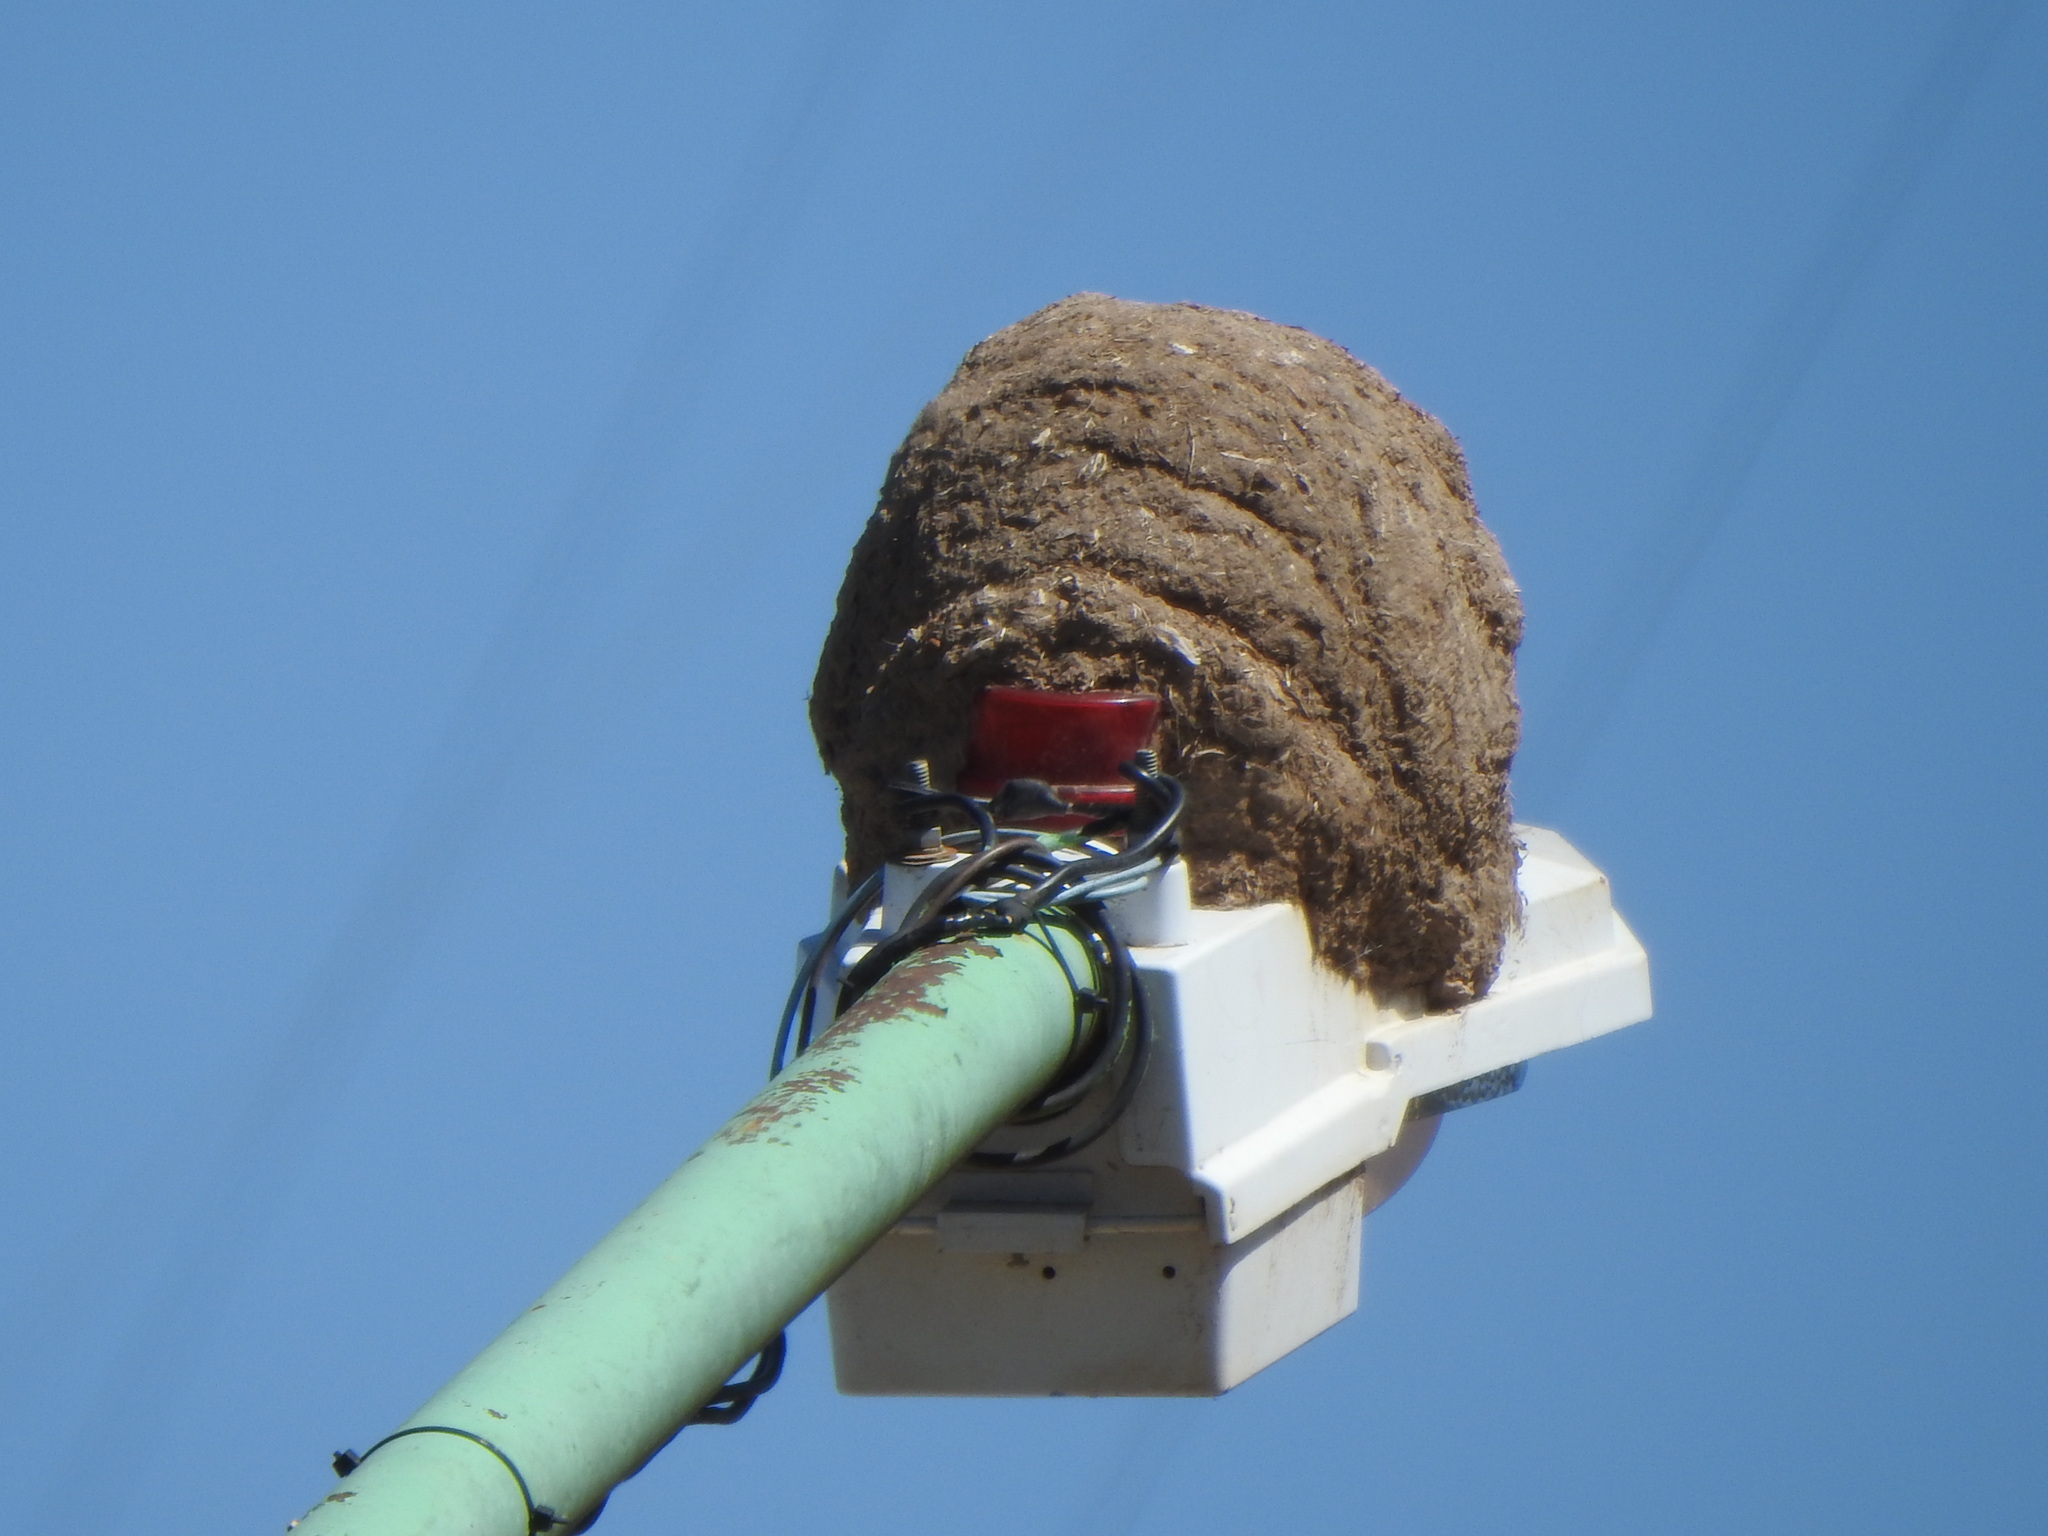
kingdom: Animalia
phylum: Chordata
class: Aves
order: Passeriformes
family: Furnariidae
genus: Furnarius
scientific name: Furnarius rufus
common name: Rufous hornero
